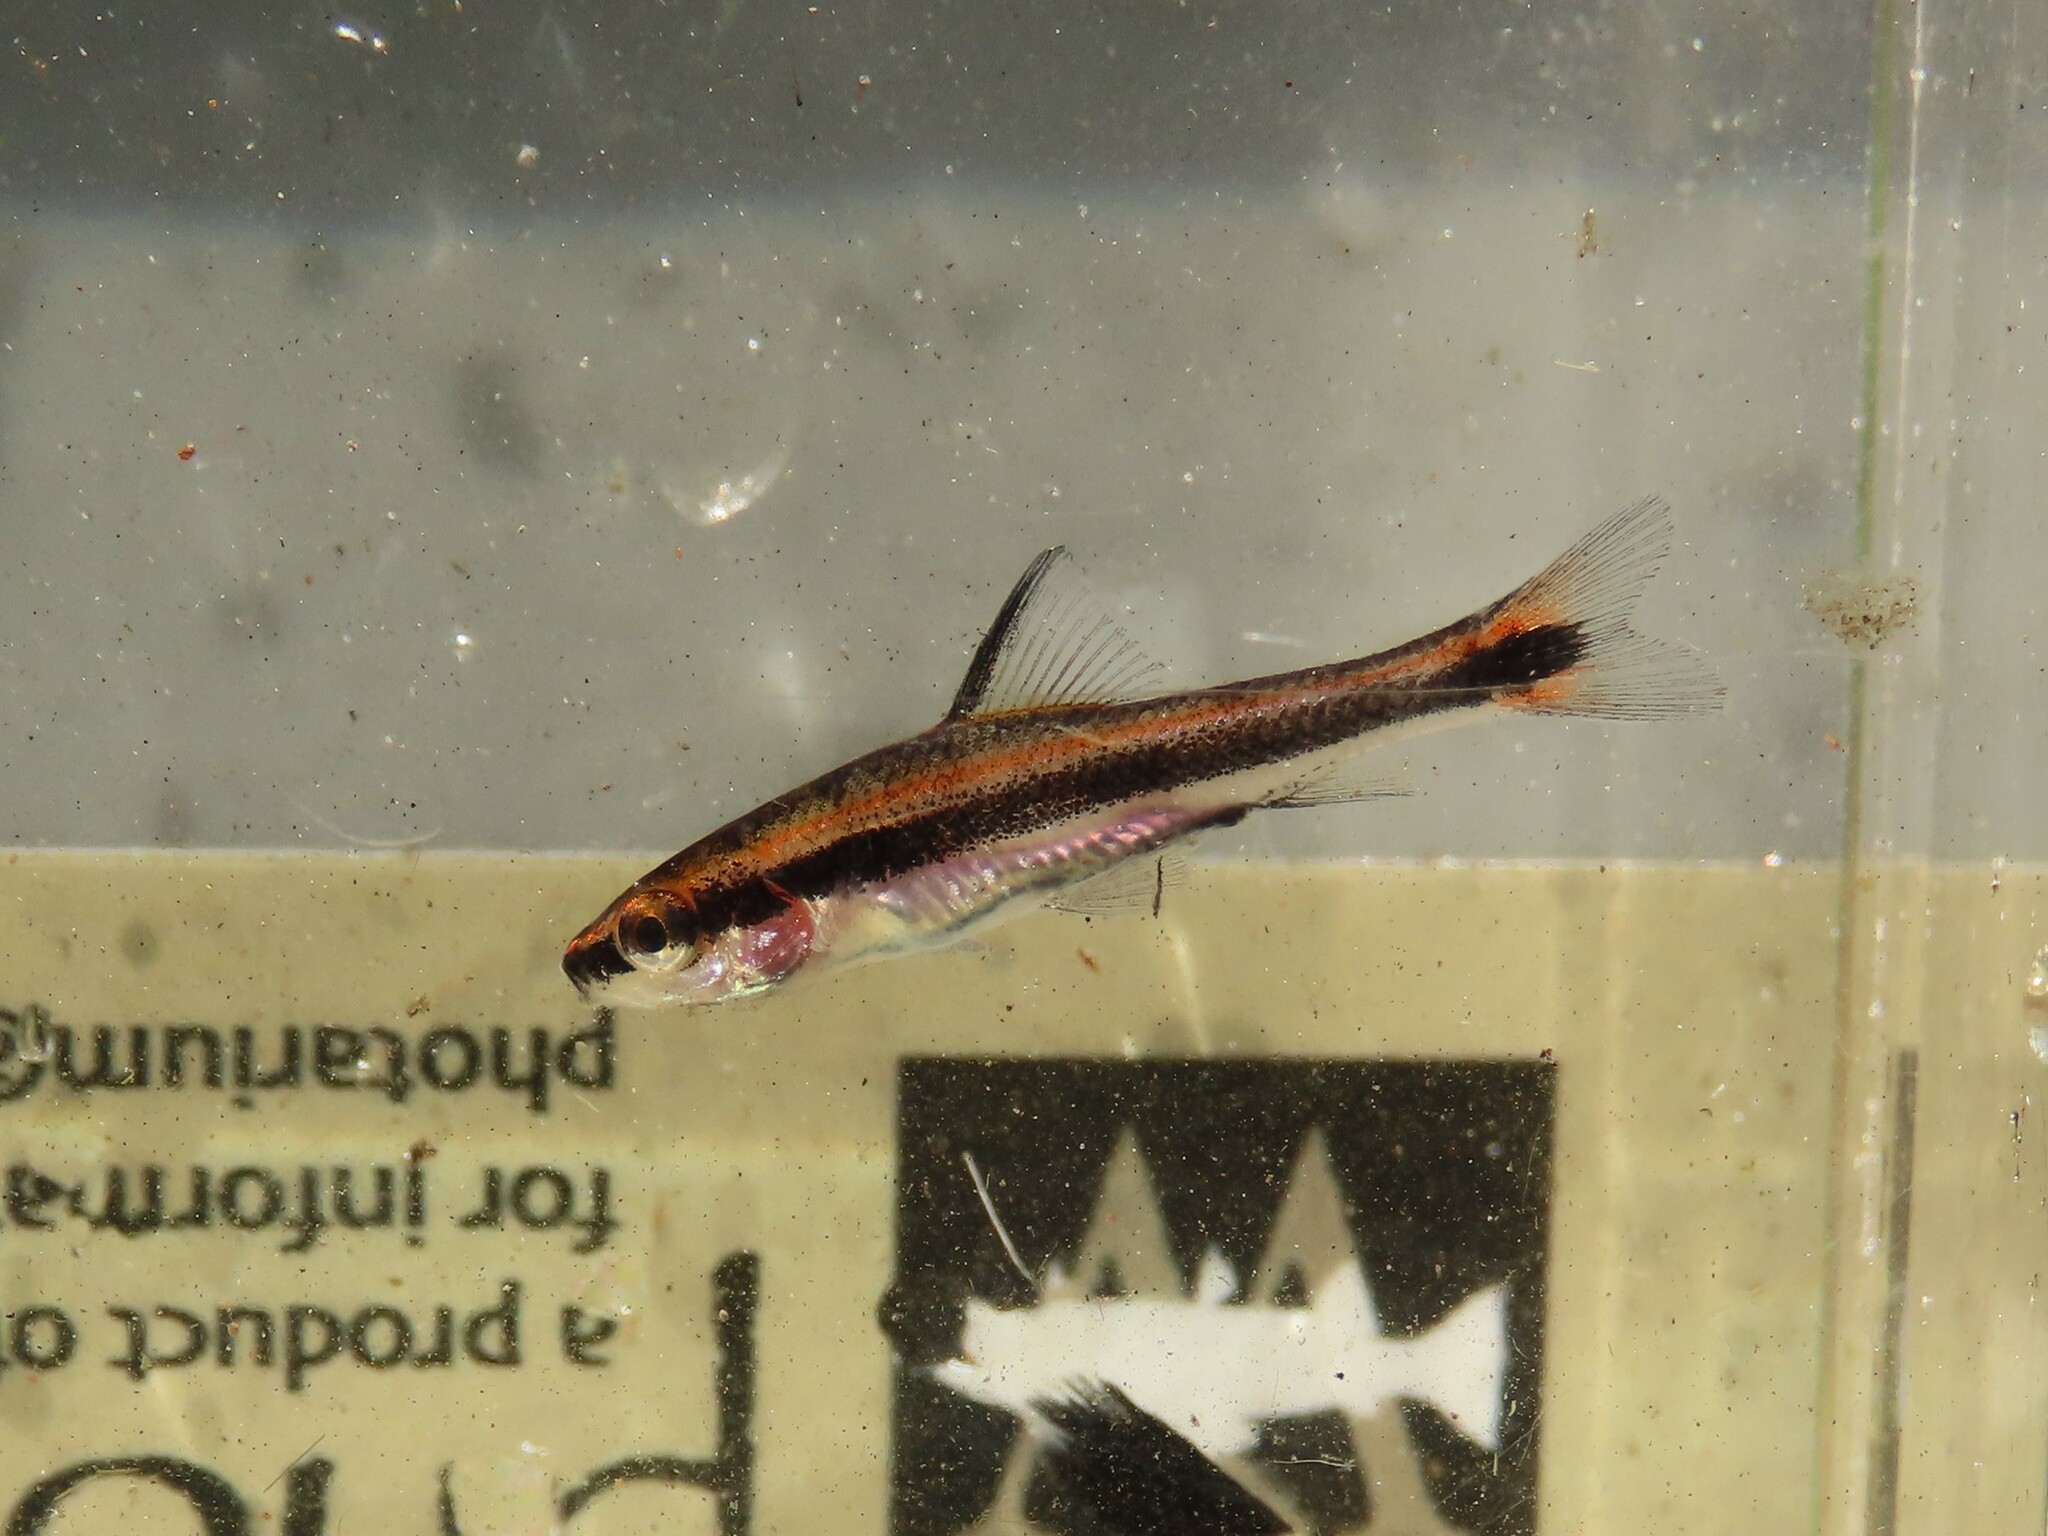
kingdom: Animalia
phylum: Chordata
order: Cypriniformes
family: Catostomidae
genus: Erimyzon
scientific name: Erimyzon sucetta
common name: Lake chubsucker
